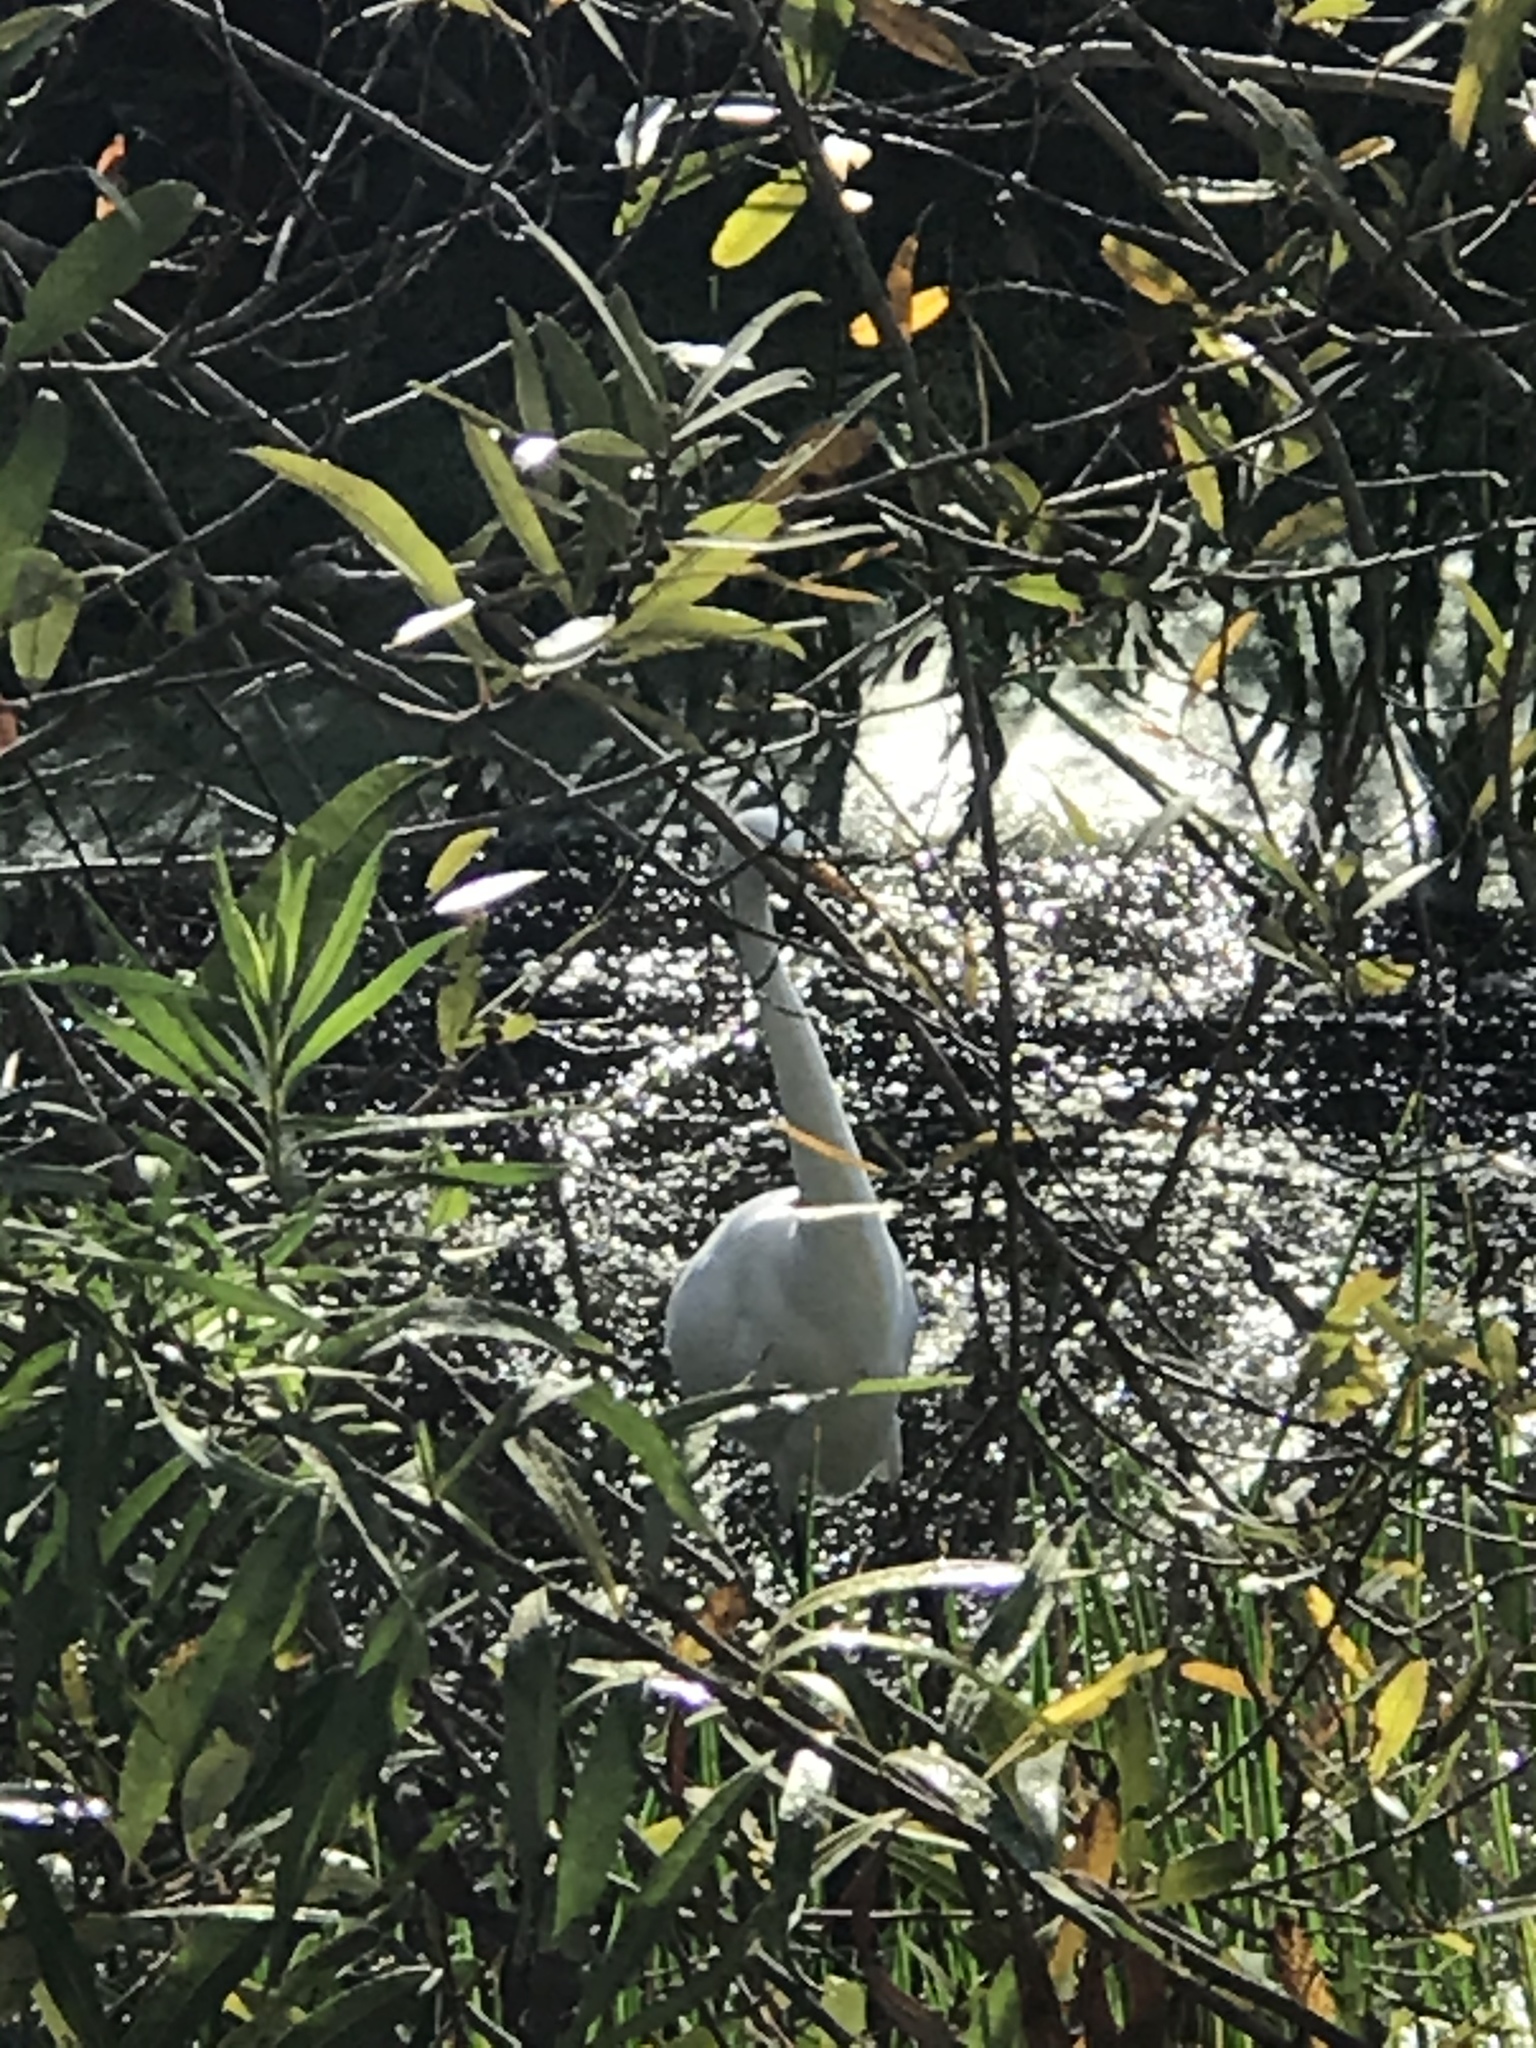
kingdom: Animalia
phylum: Chordata
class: Aves
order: Pelecaniformes
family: Ardeidae
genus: Ardea
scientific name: Ardea alba
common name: Great egret
